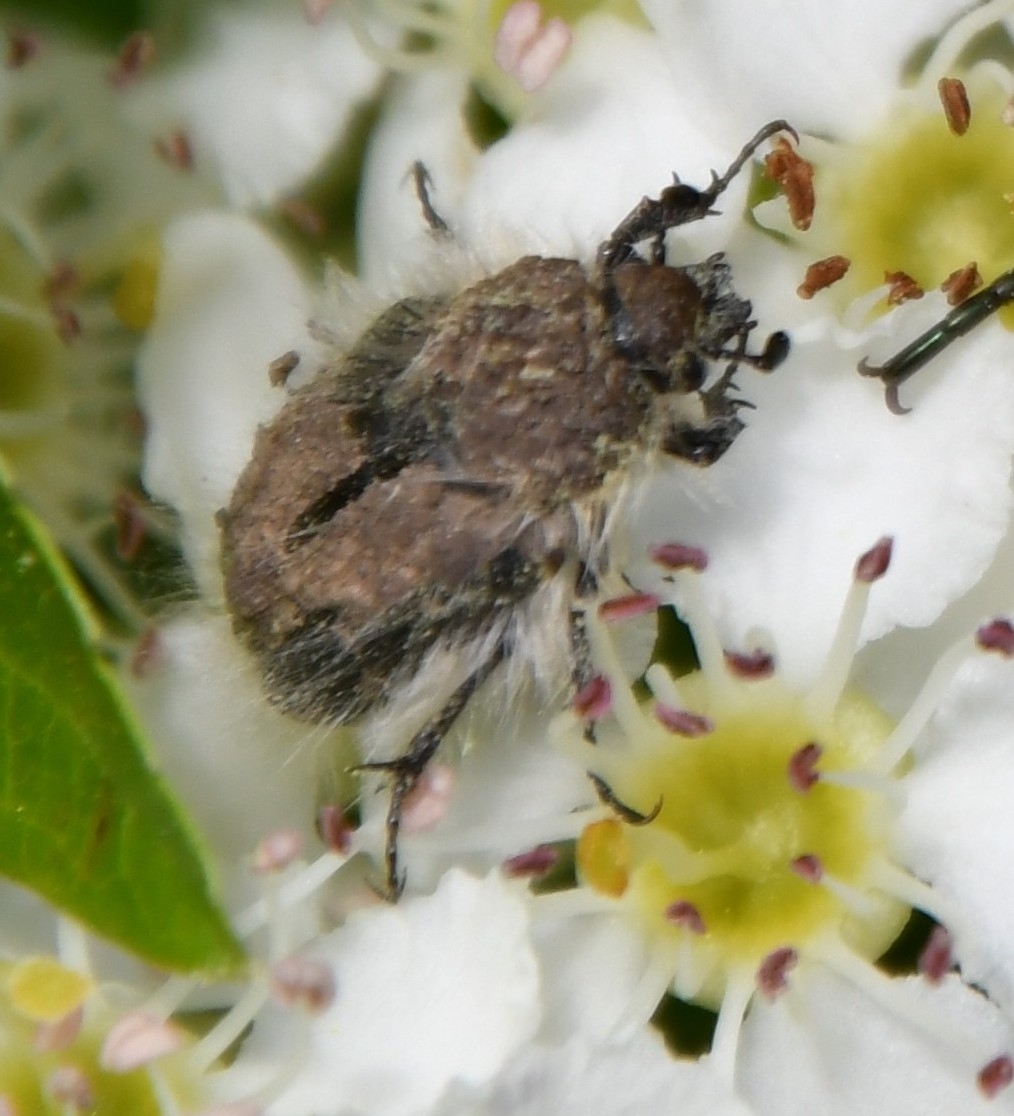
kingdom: Animalia
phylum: Arthropoda
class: Insecta
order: Coleoptera
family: Scarabaeidae
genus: Tropinota
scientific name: Tropinota hirta
